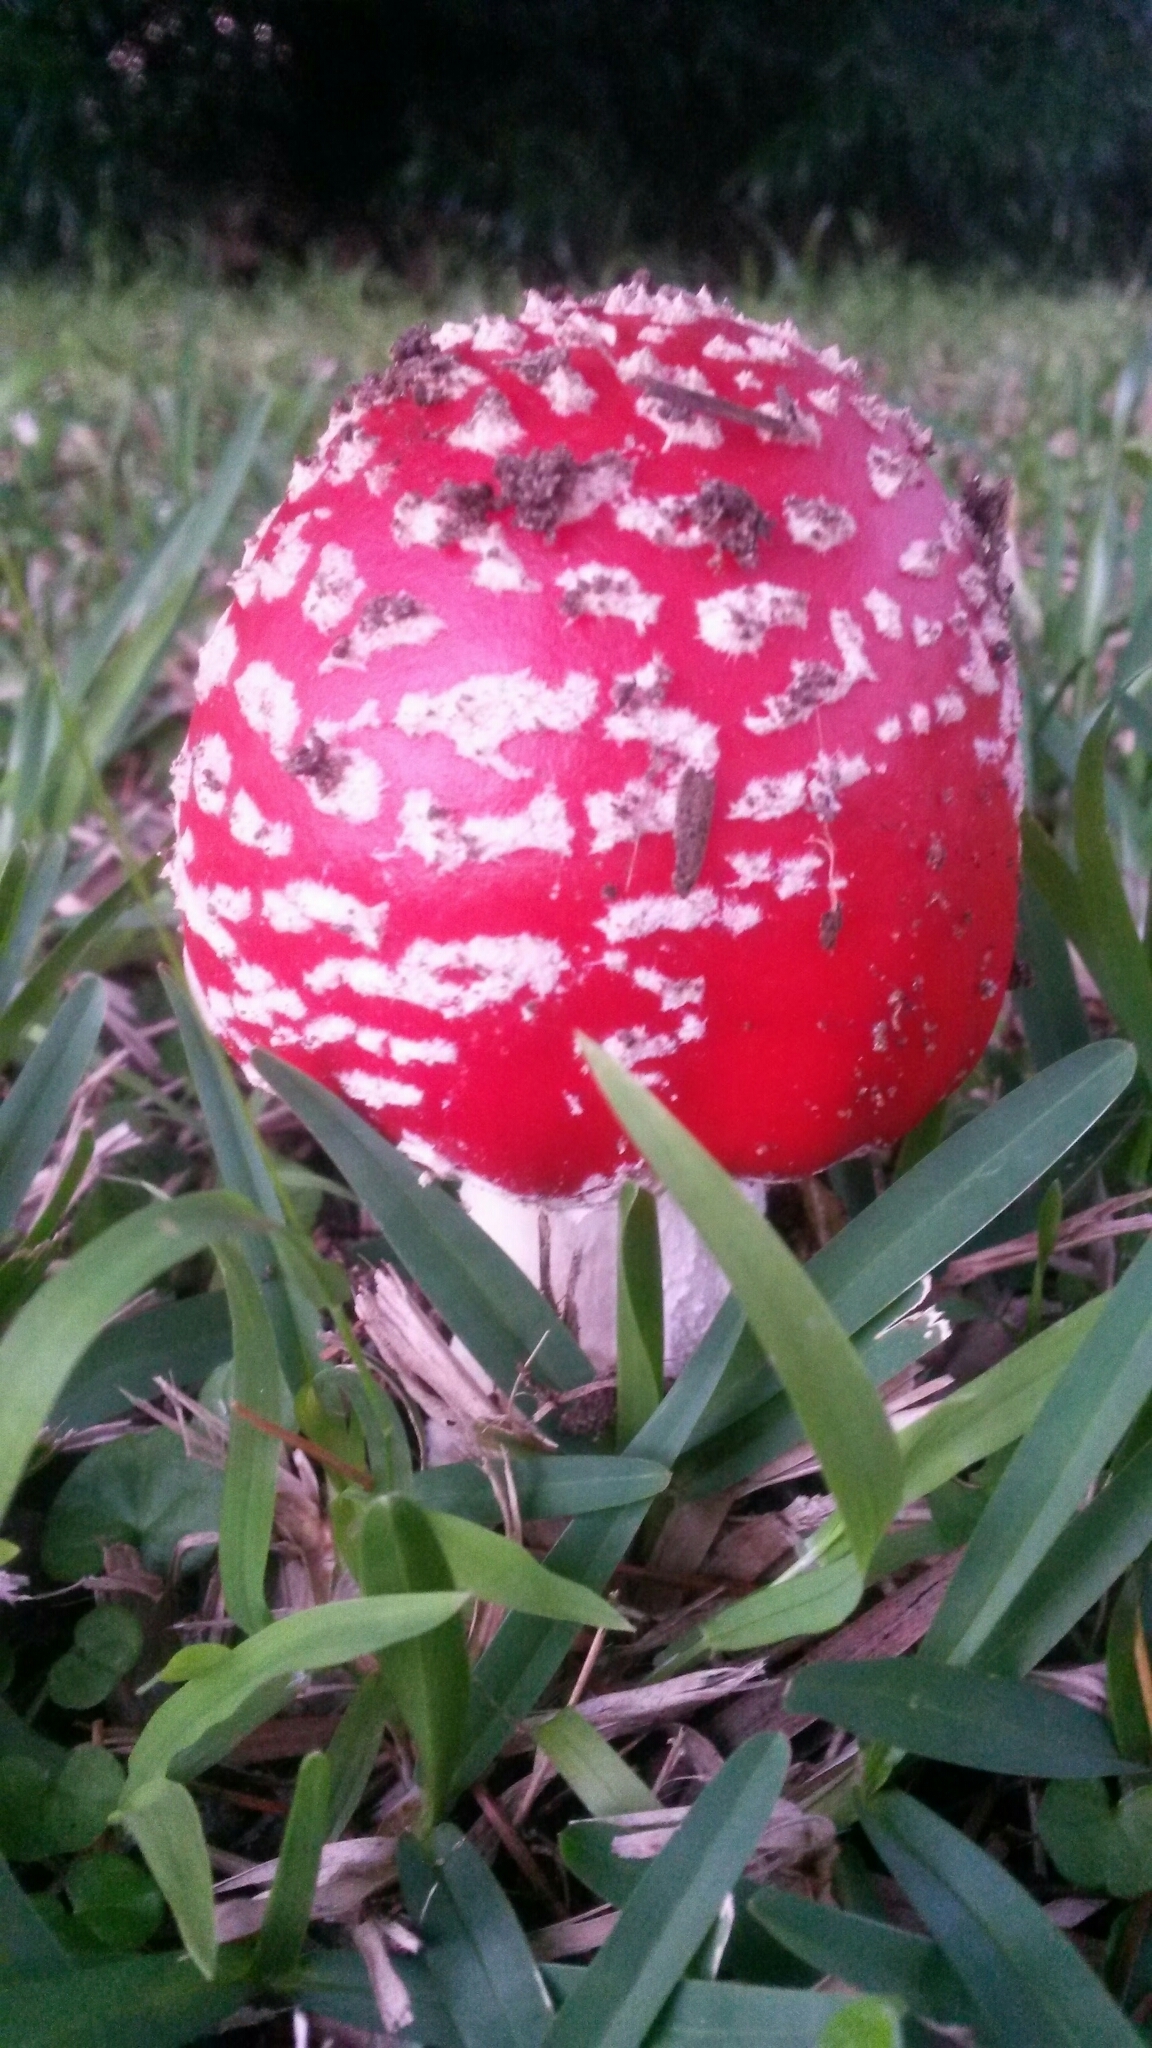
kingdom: Fungi
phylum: Basidiomycota
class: Agaricomycetes
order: Agaricales
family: Amanitaceae
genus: Amanita
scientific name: Amanita muscaria
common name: Fly agaric
